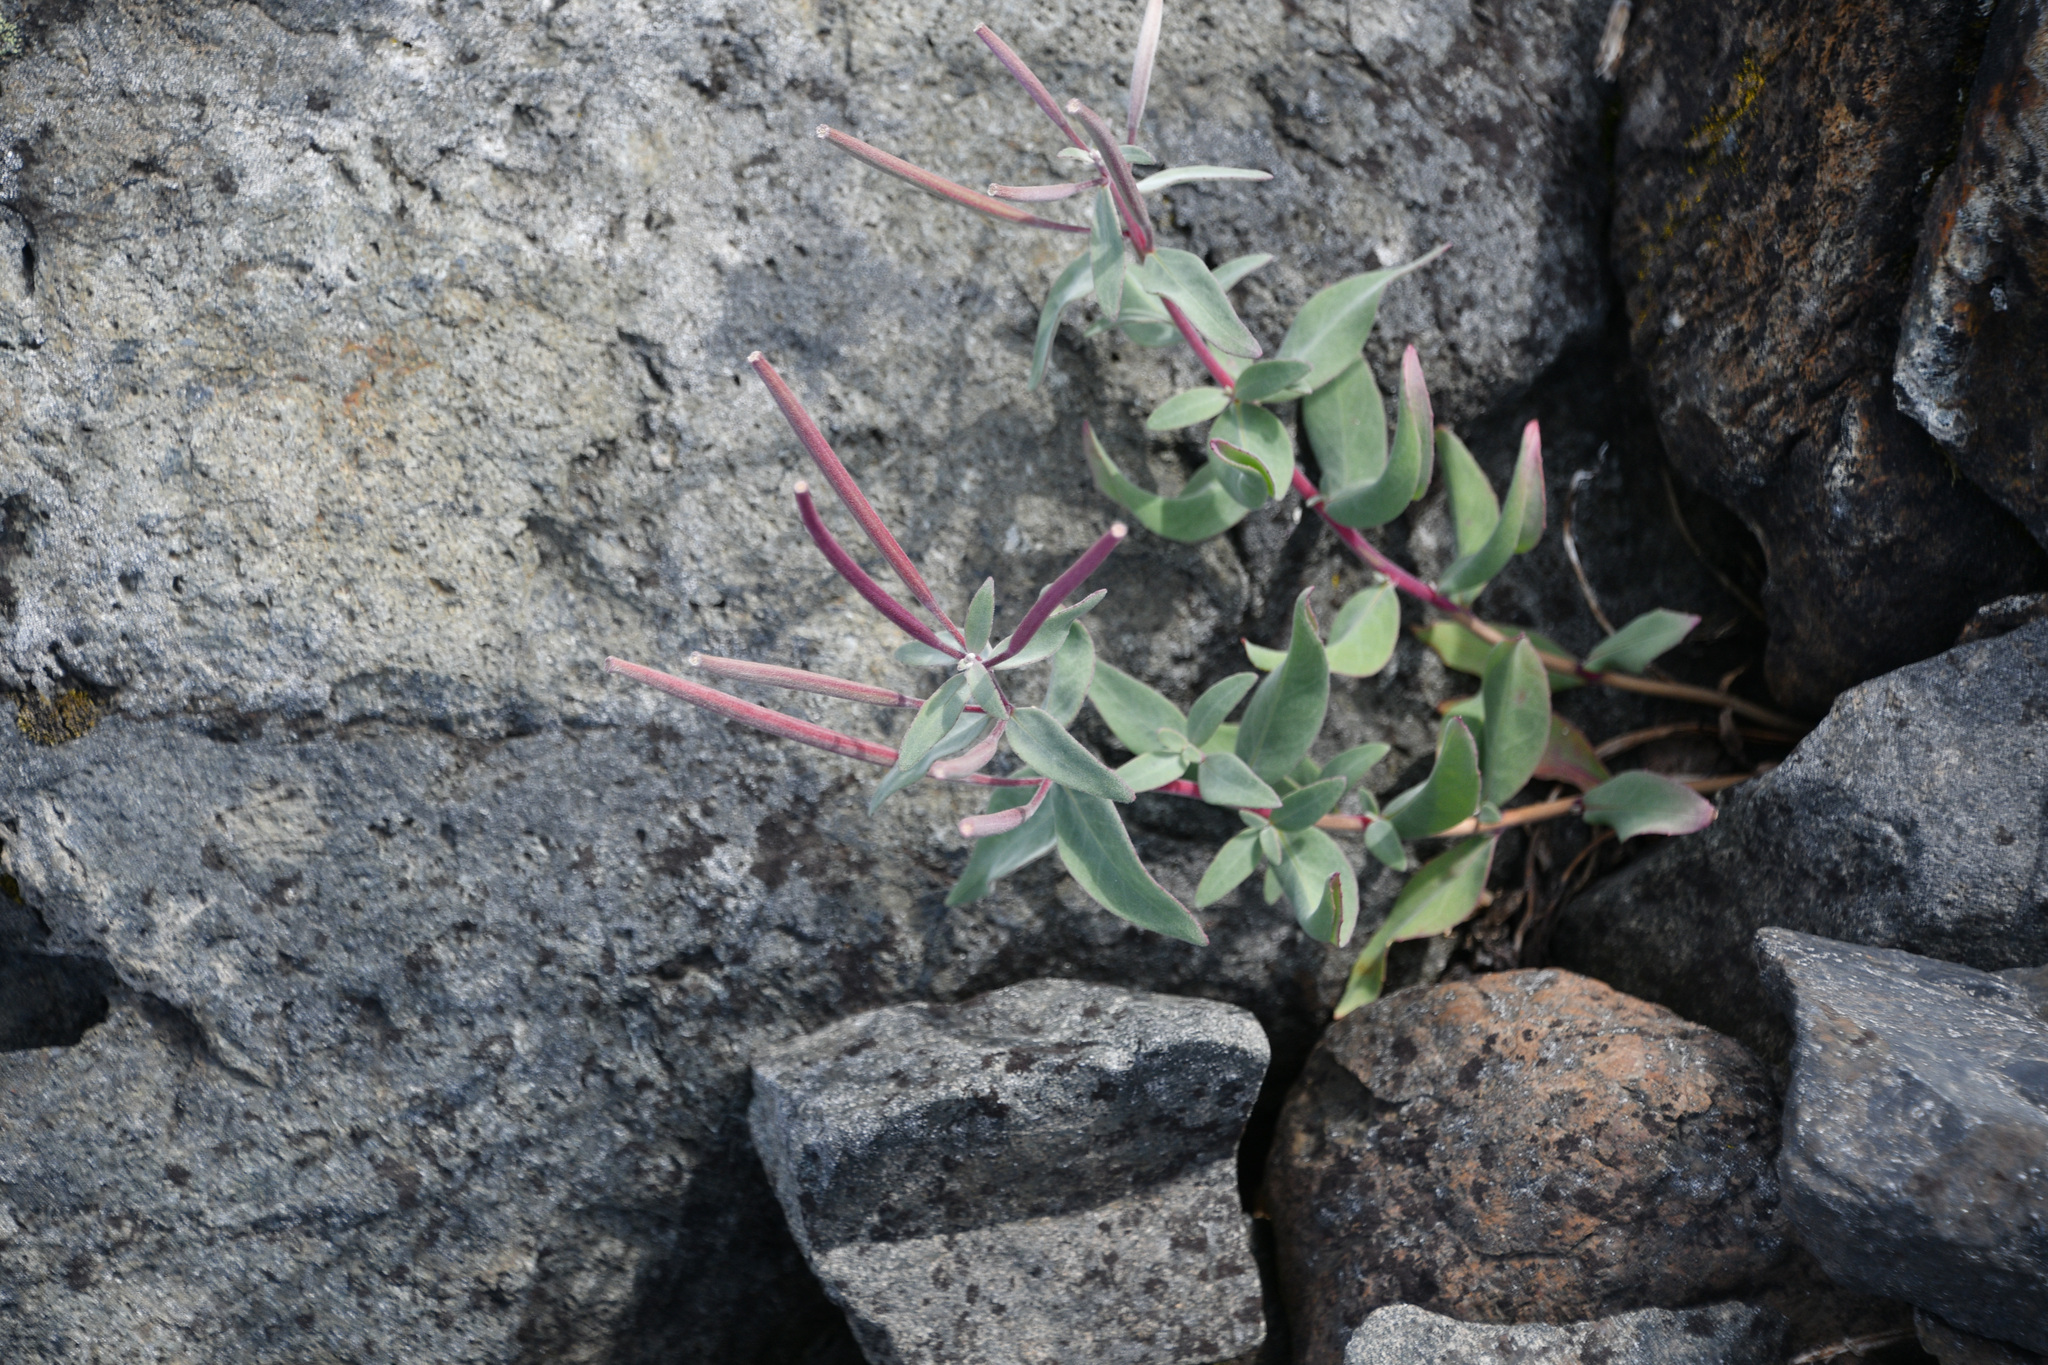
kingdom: Plantae
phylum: Tracheophyta
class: Magnoliopsida
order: Myrtales
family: Onagraceae
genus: Chamaenerion
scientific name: Chamaenerion latifolium
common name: Dwarf fireweed
